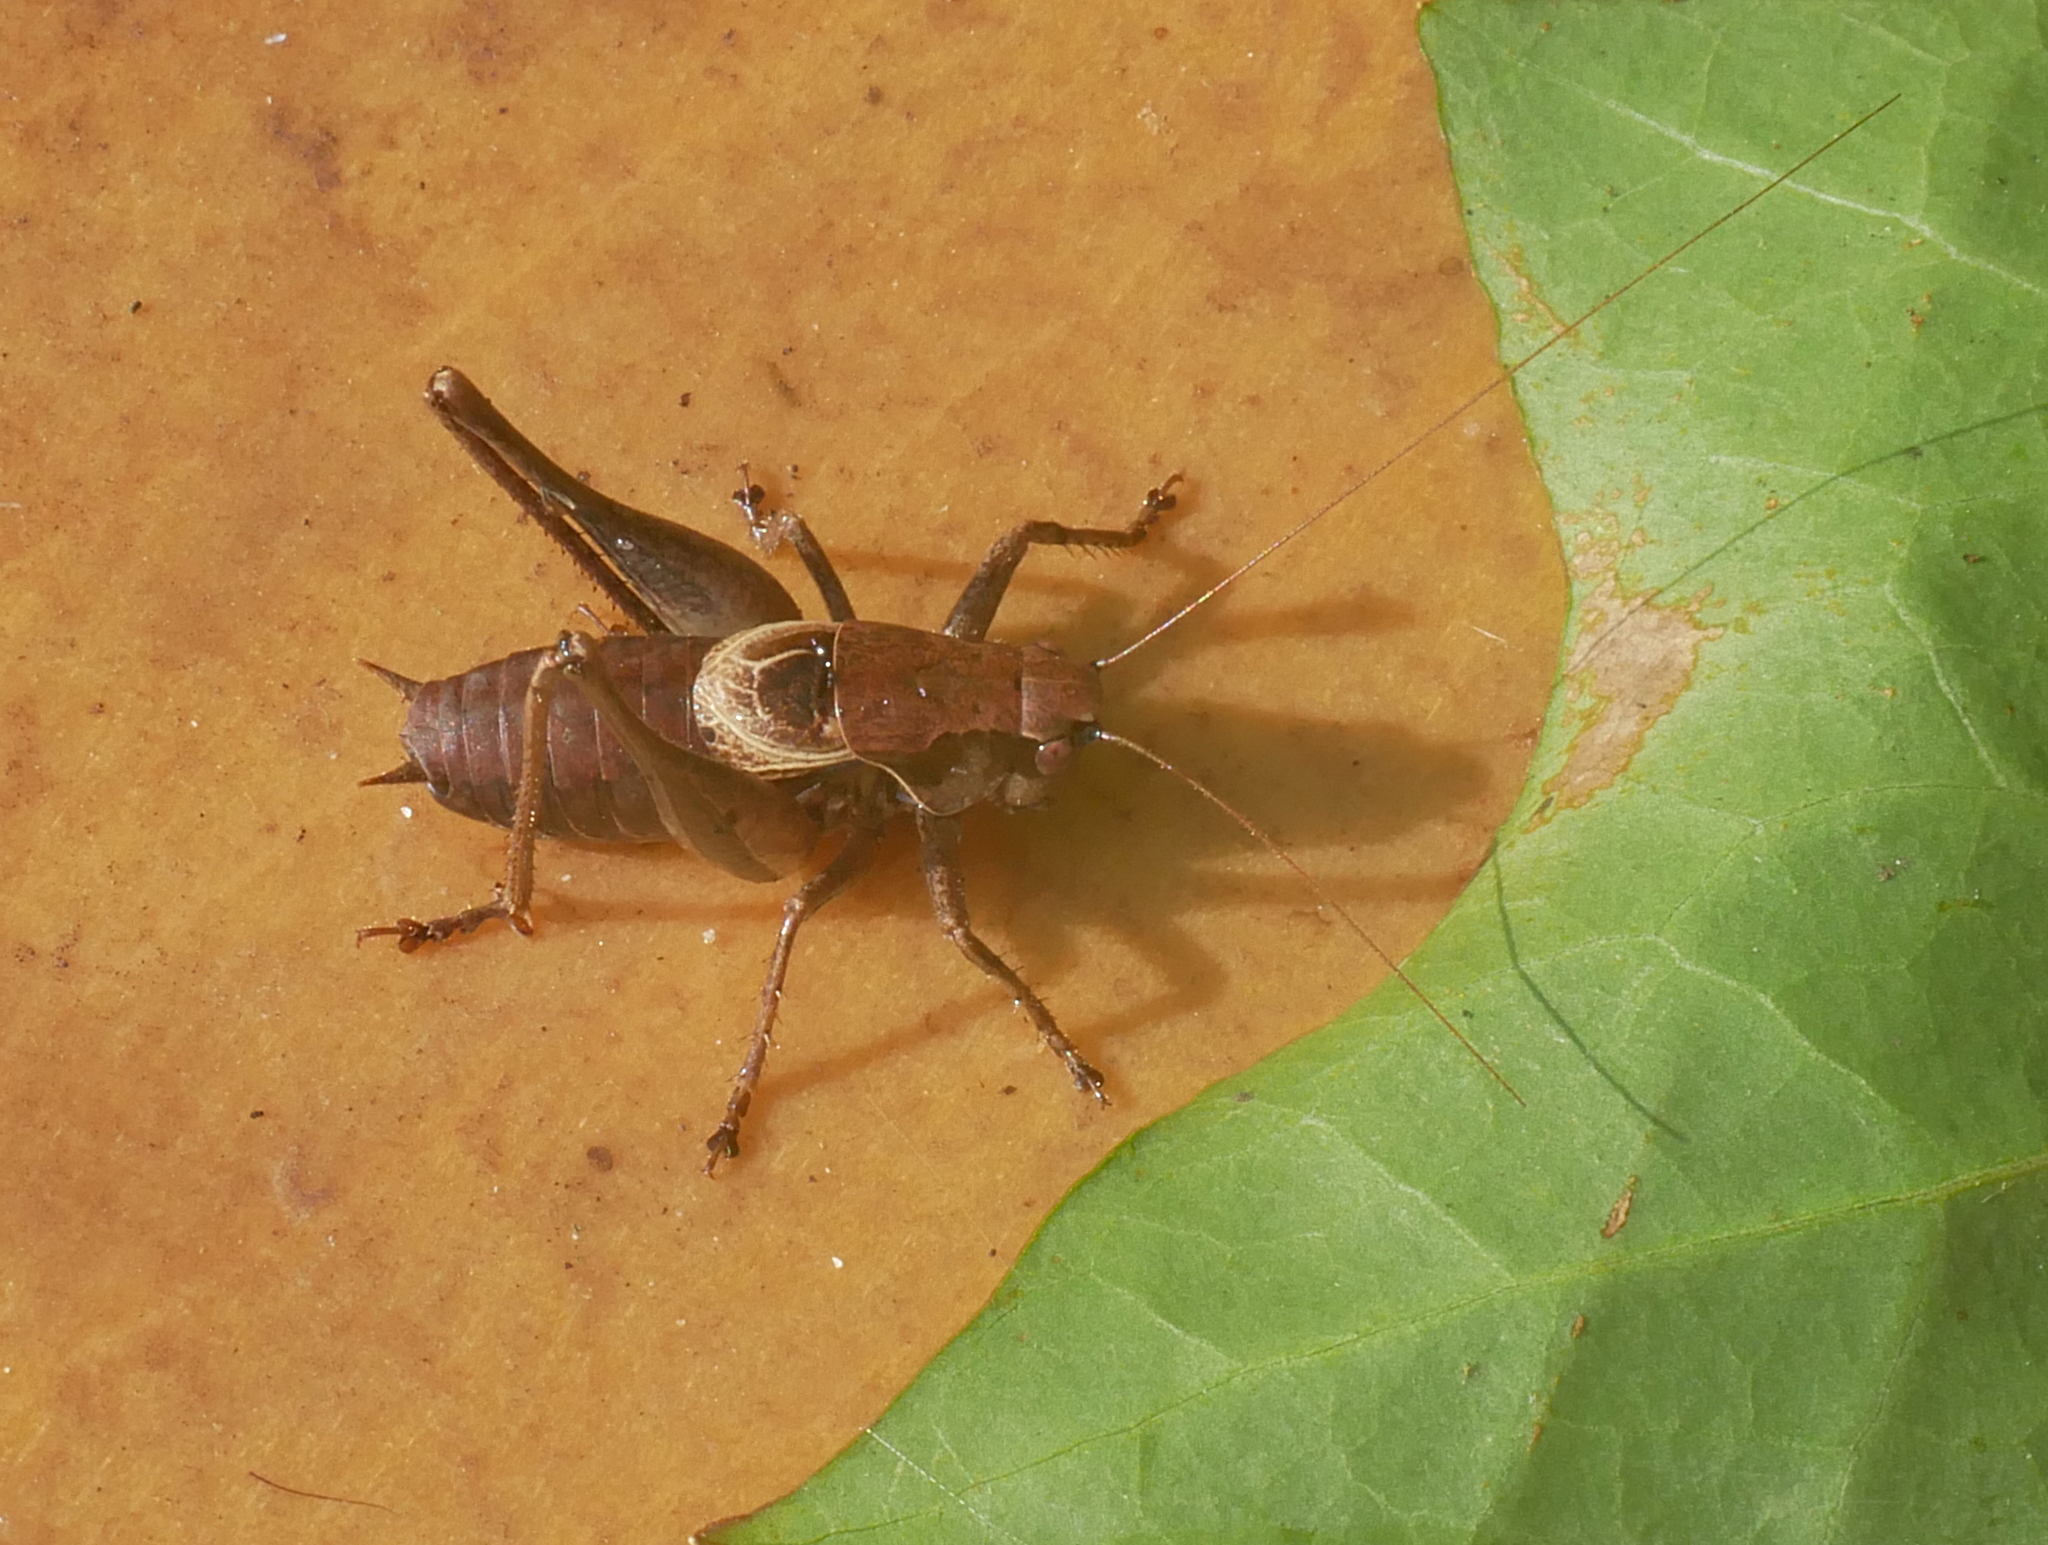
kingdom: Animalia
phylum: Arthropoda
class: Insecta
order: Orthoptera
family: Tettigoniidae
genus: Pholidoptera
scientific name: Pholidoptera griseoaptera
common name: Dark bush-cricket
